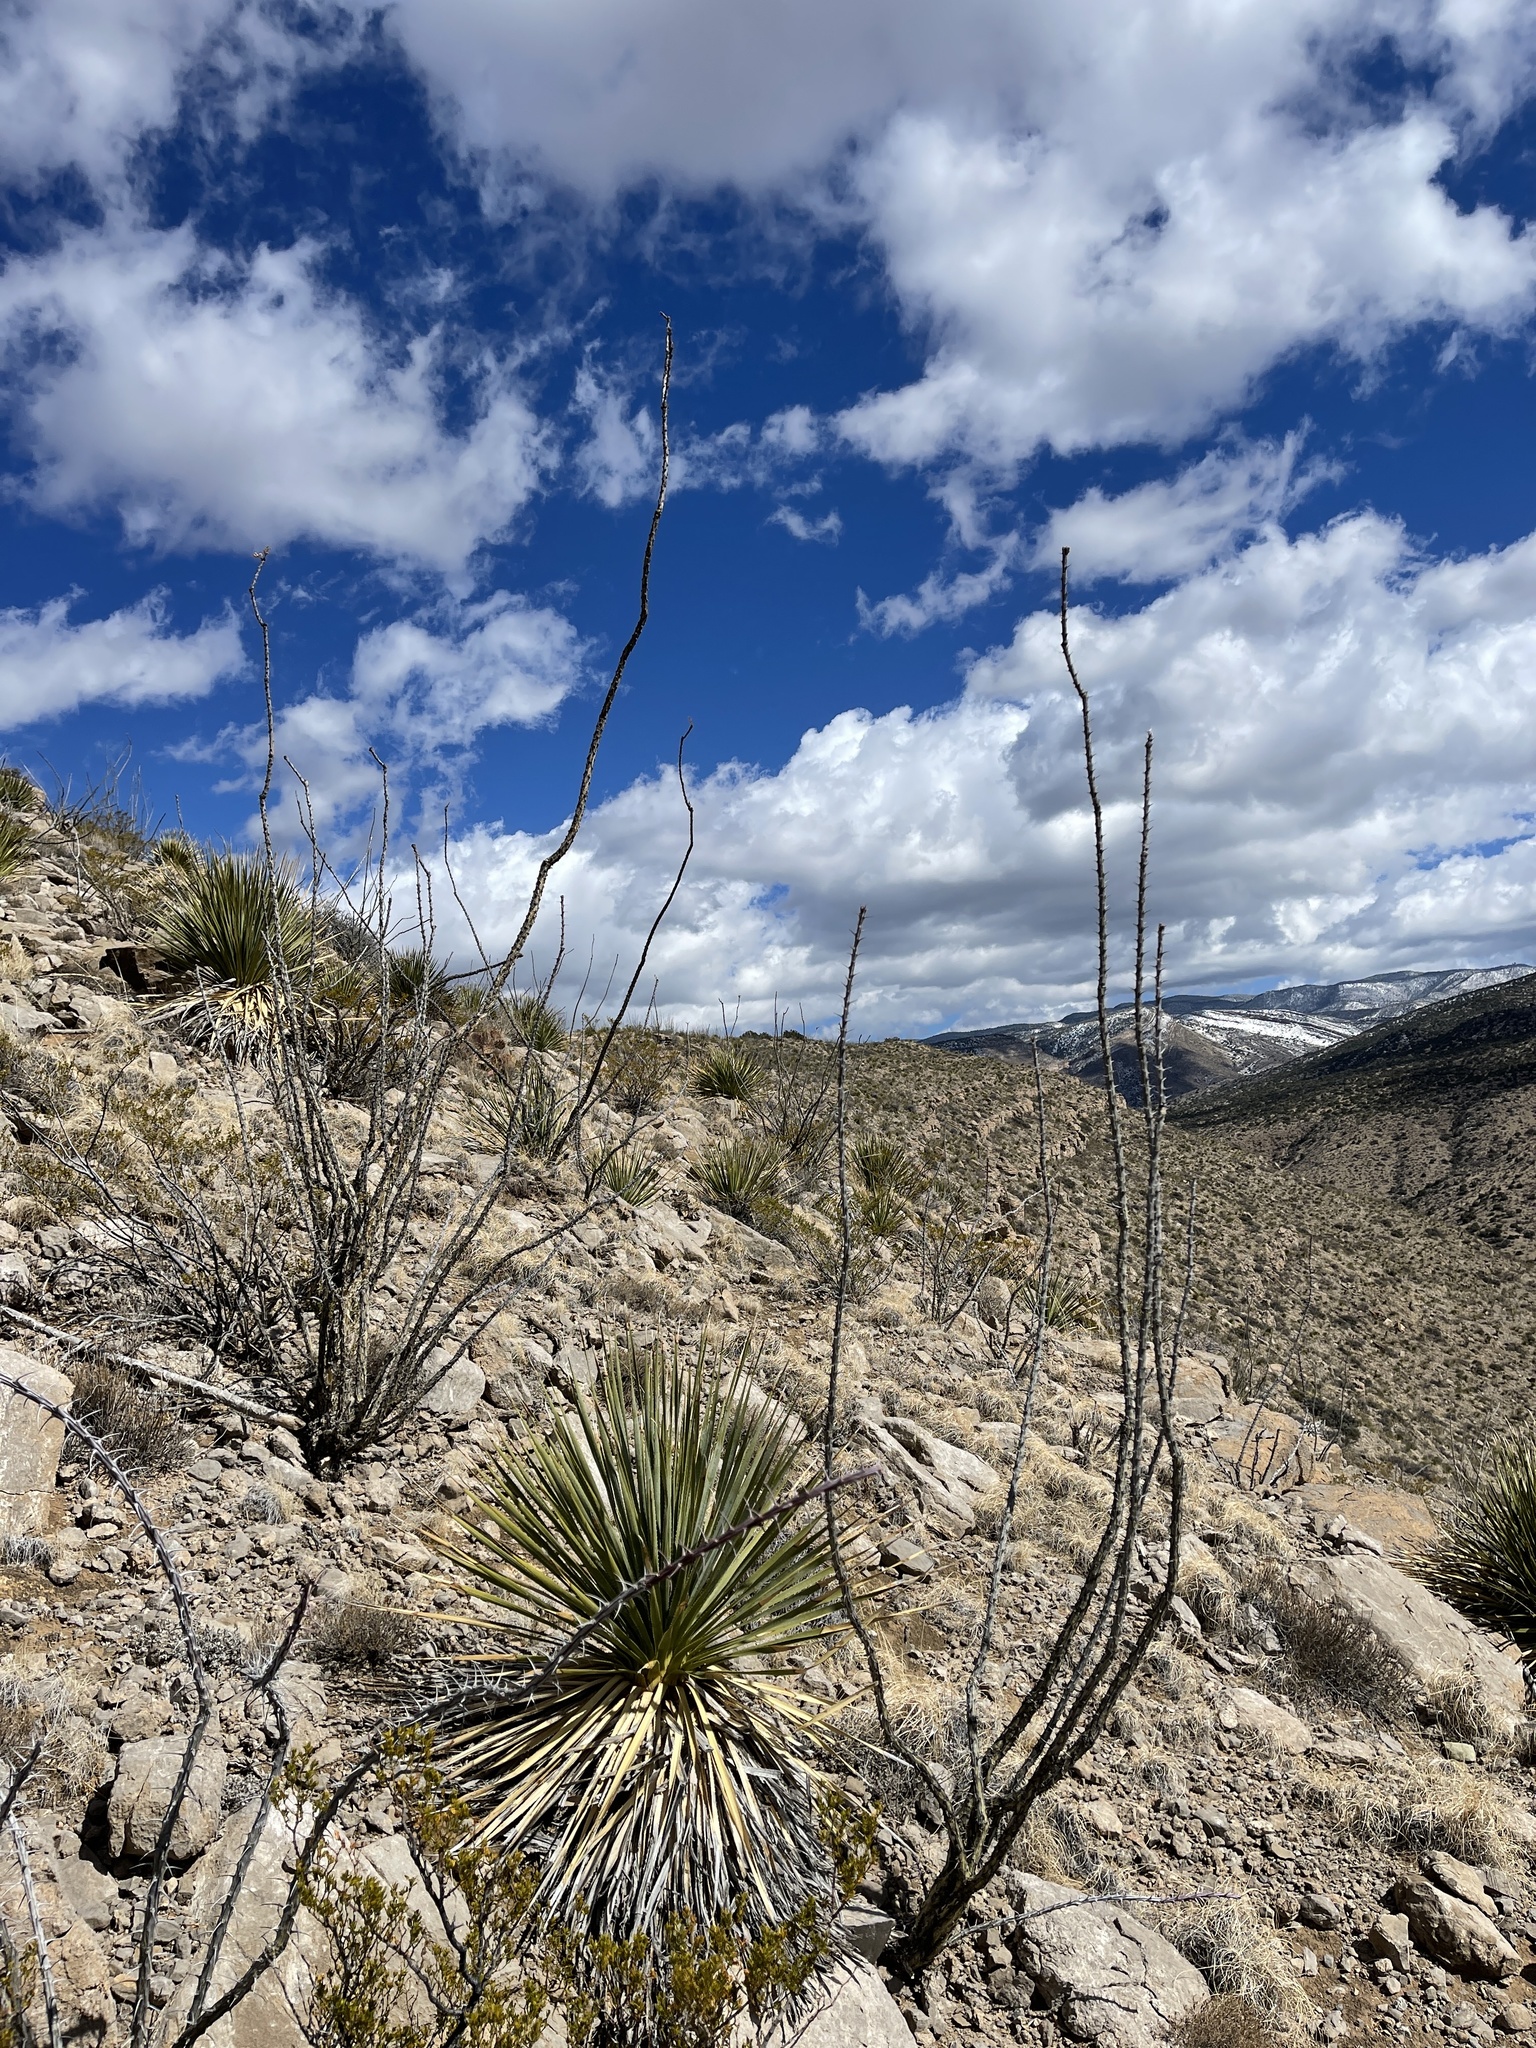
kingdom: Plantae
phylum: Tracheophyta
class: Magnoliopsida
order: Ericales
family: Fouquieriaceae
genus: Fouquieria
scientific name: Fouquieria splendens
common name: Vine-cactus
